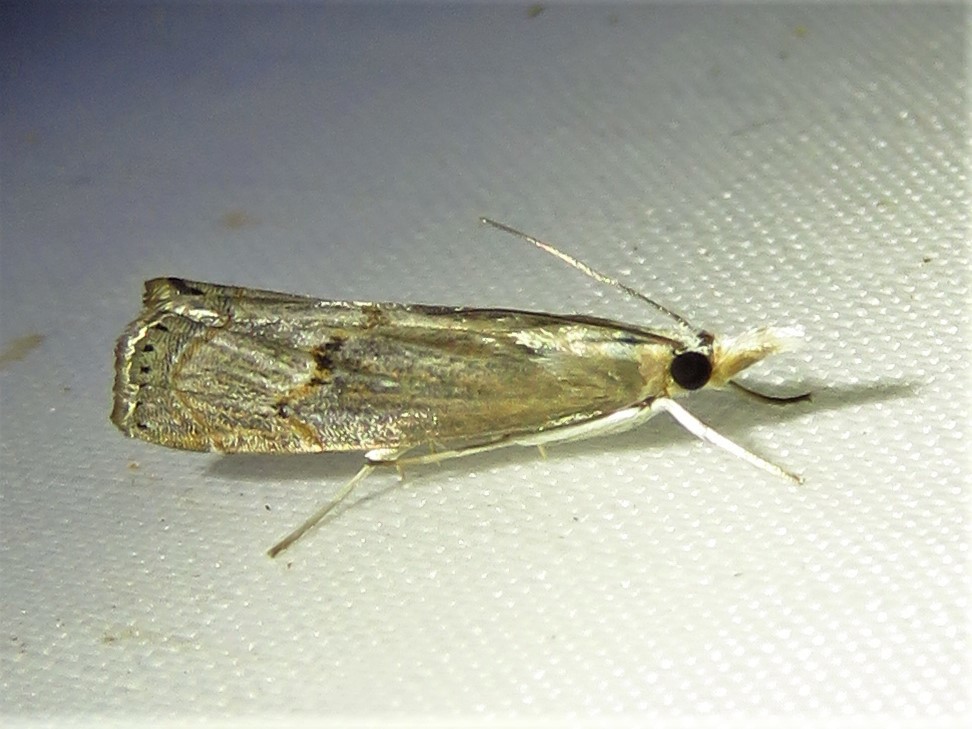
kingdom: Animalia
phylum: Arthropoda
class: Insecta
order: Lepidoptera
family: Crambidae
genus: Parapediasia
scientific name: Parapediasia teterellus
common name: Bluegrass webworm moth
